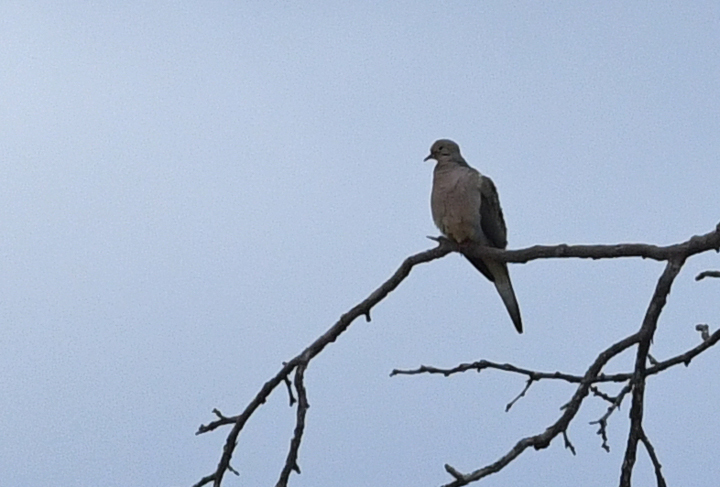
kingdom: Animalia
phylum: Chordata
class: Aves
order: Columbiformes
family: Columbidae
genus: Zenaida
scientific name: Zenaida macroura
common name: Mourning dove
